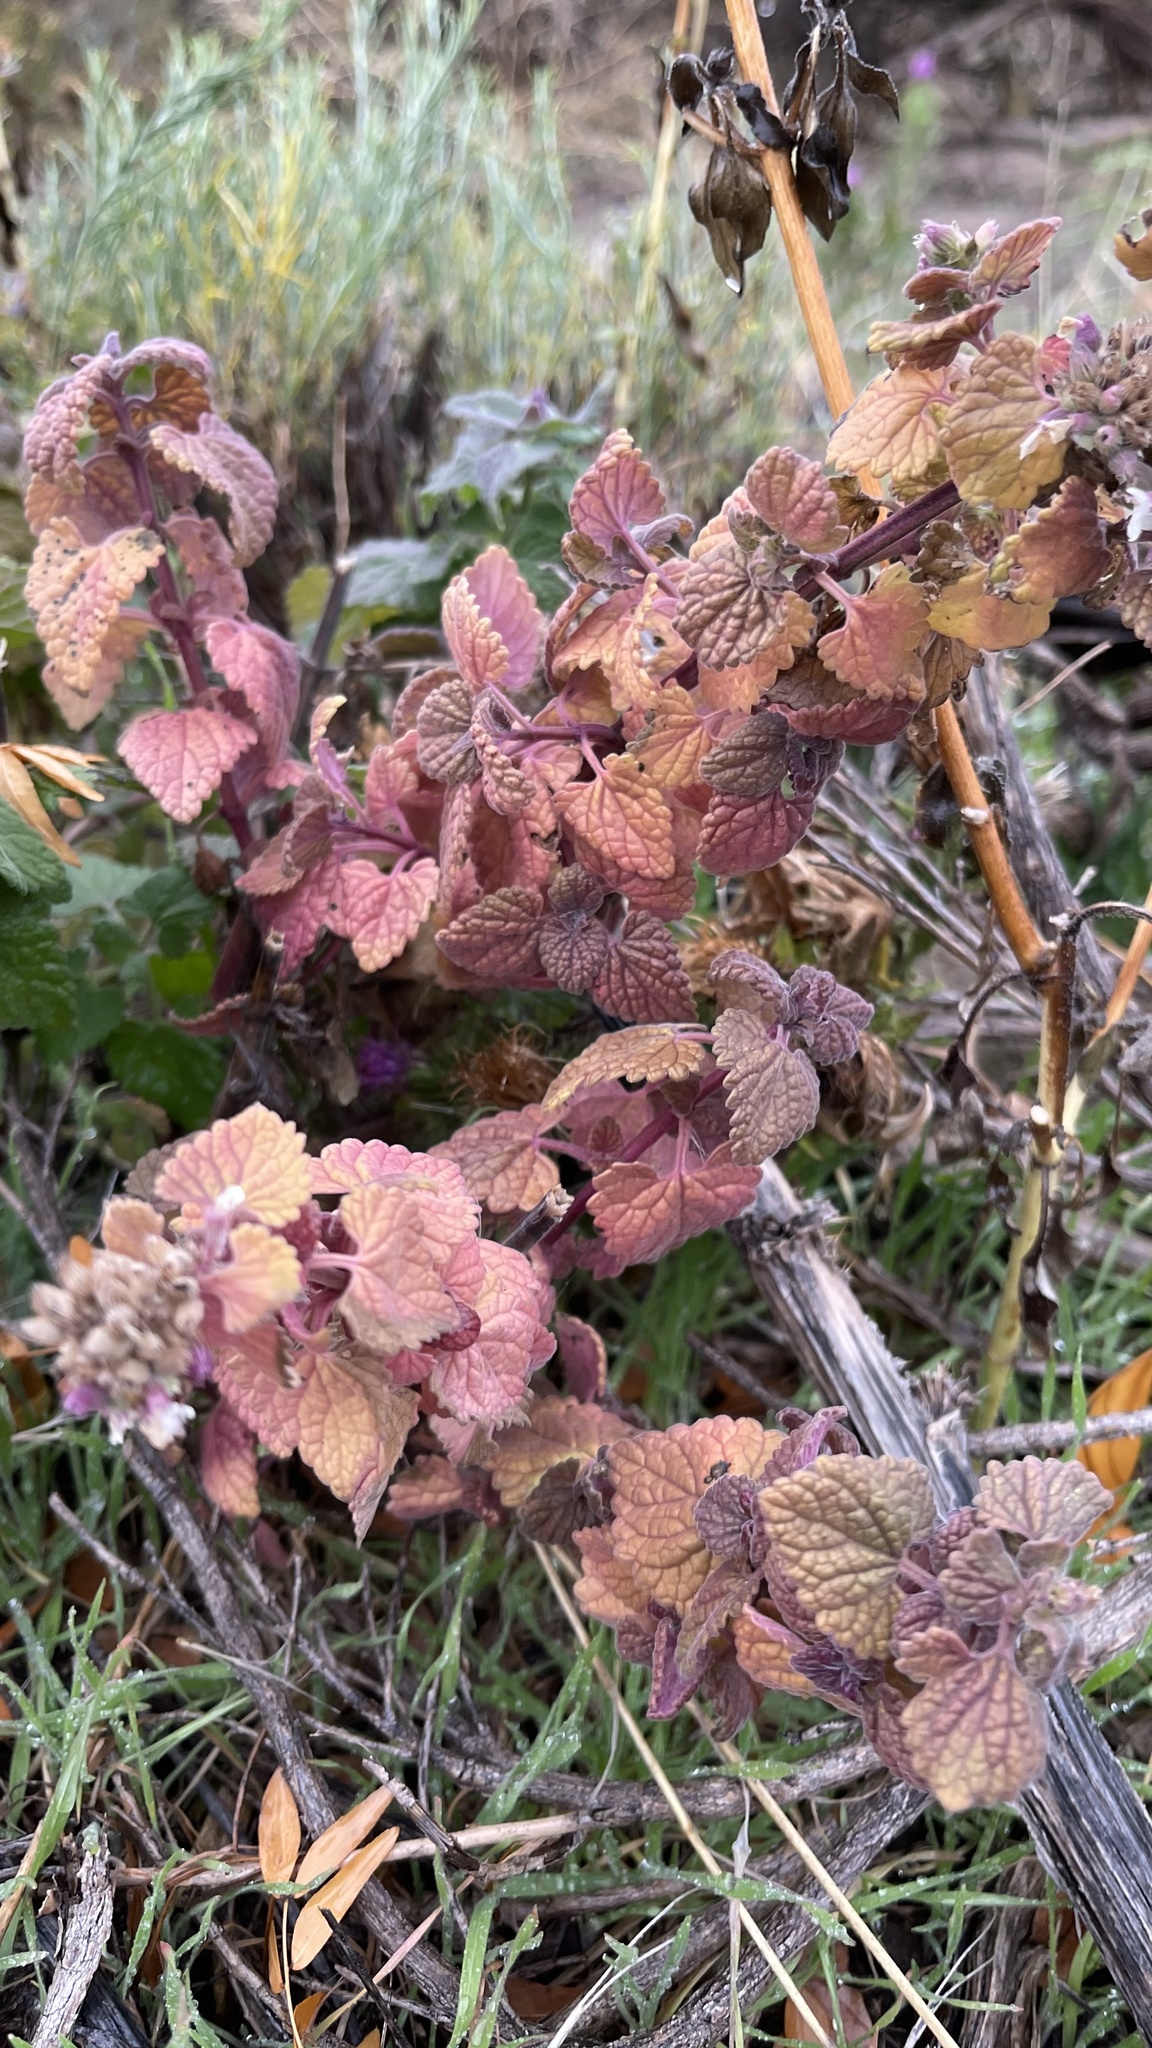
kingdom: Plantae
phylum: Tracheophyta
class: Magnoliopsida
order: Lamiales
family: Lamiaceae
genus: Nepeta
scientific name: Nepeta cataria
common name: Catnip
